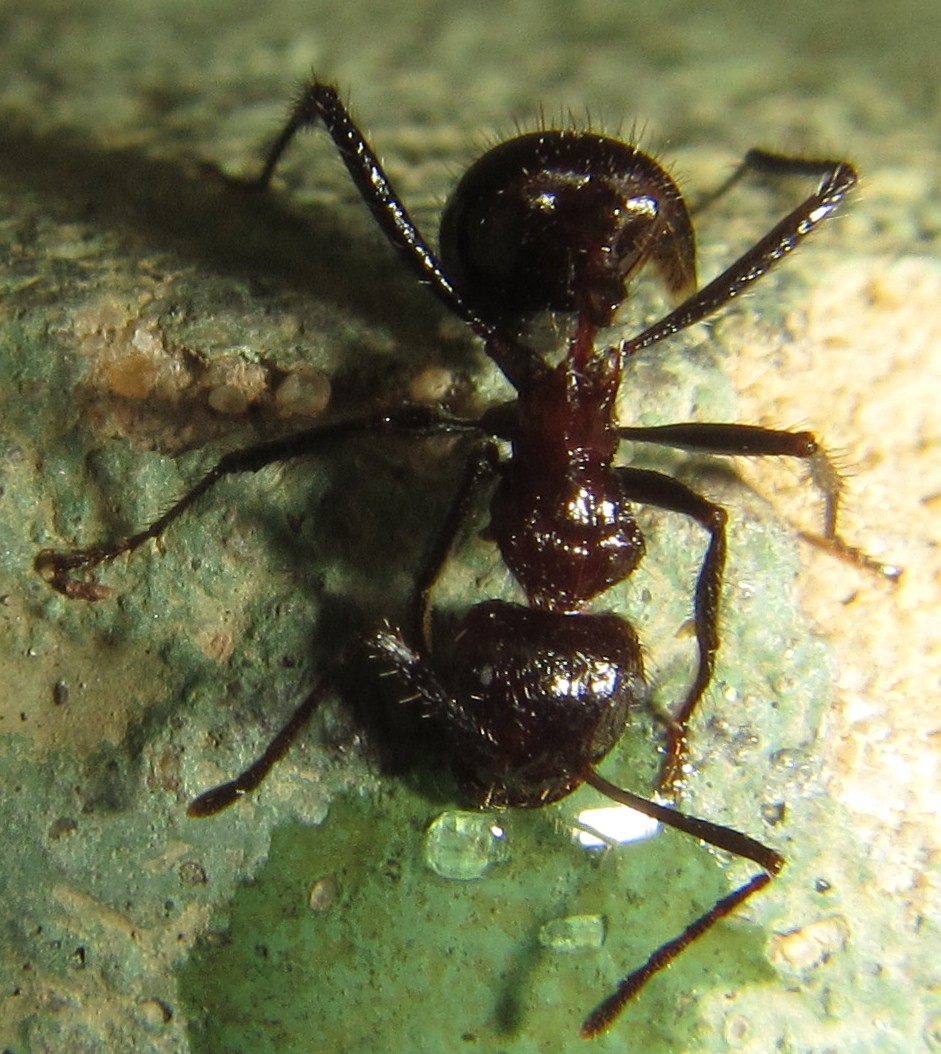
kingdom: Animalia
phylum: Arthropoda
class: Insecta
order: Hymenoptera
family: Formicidae
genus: Myrmicaria
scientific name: Myrmicaria natalensis
